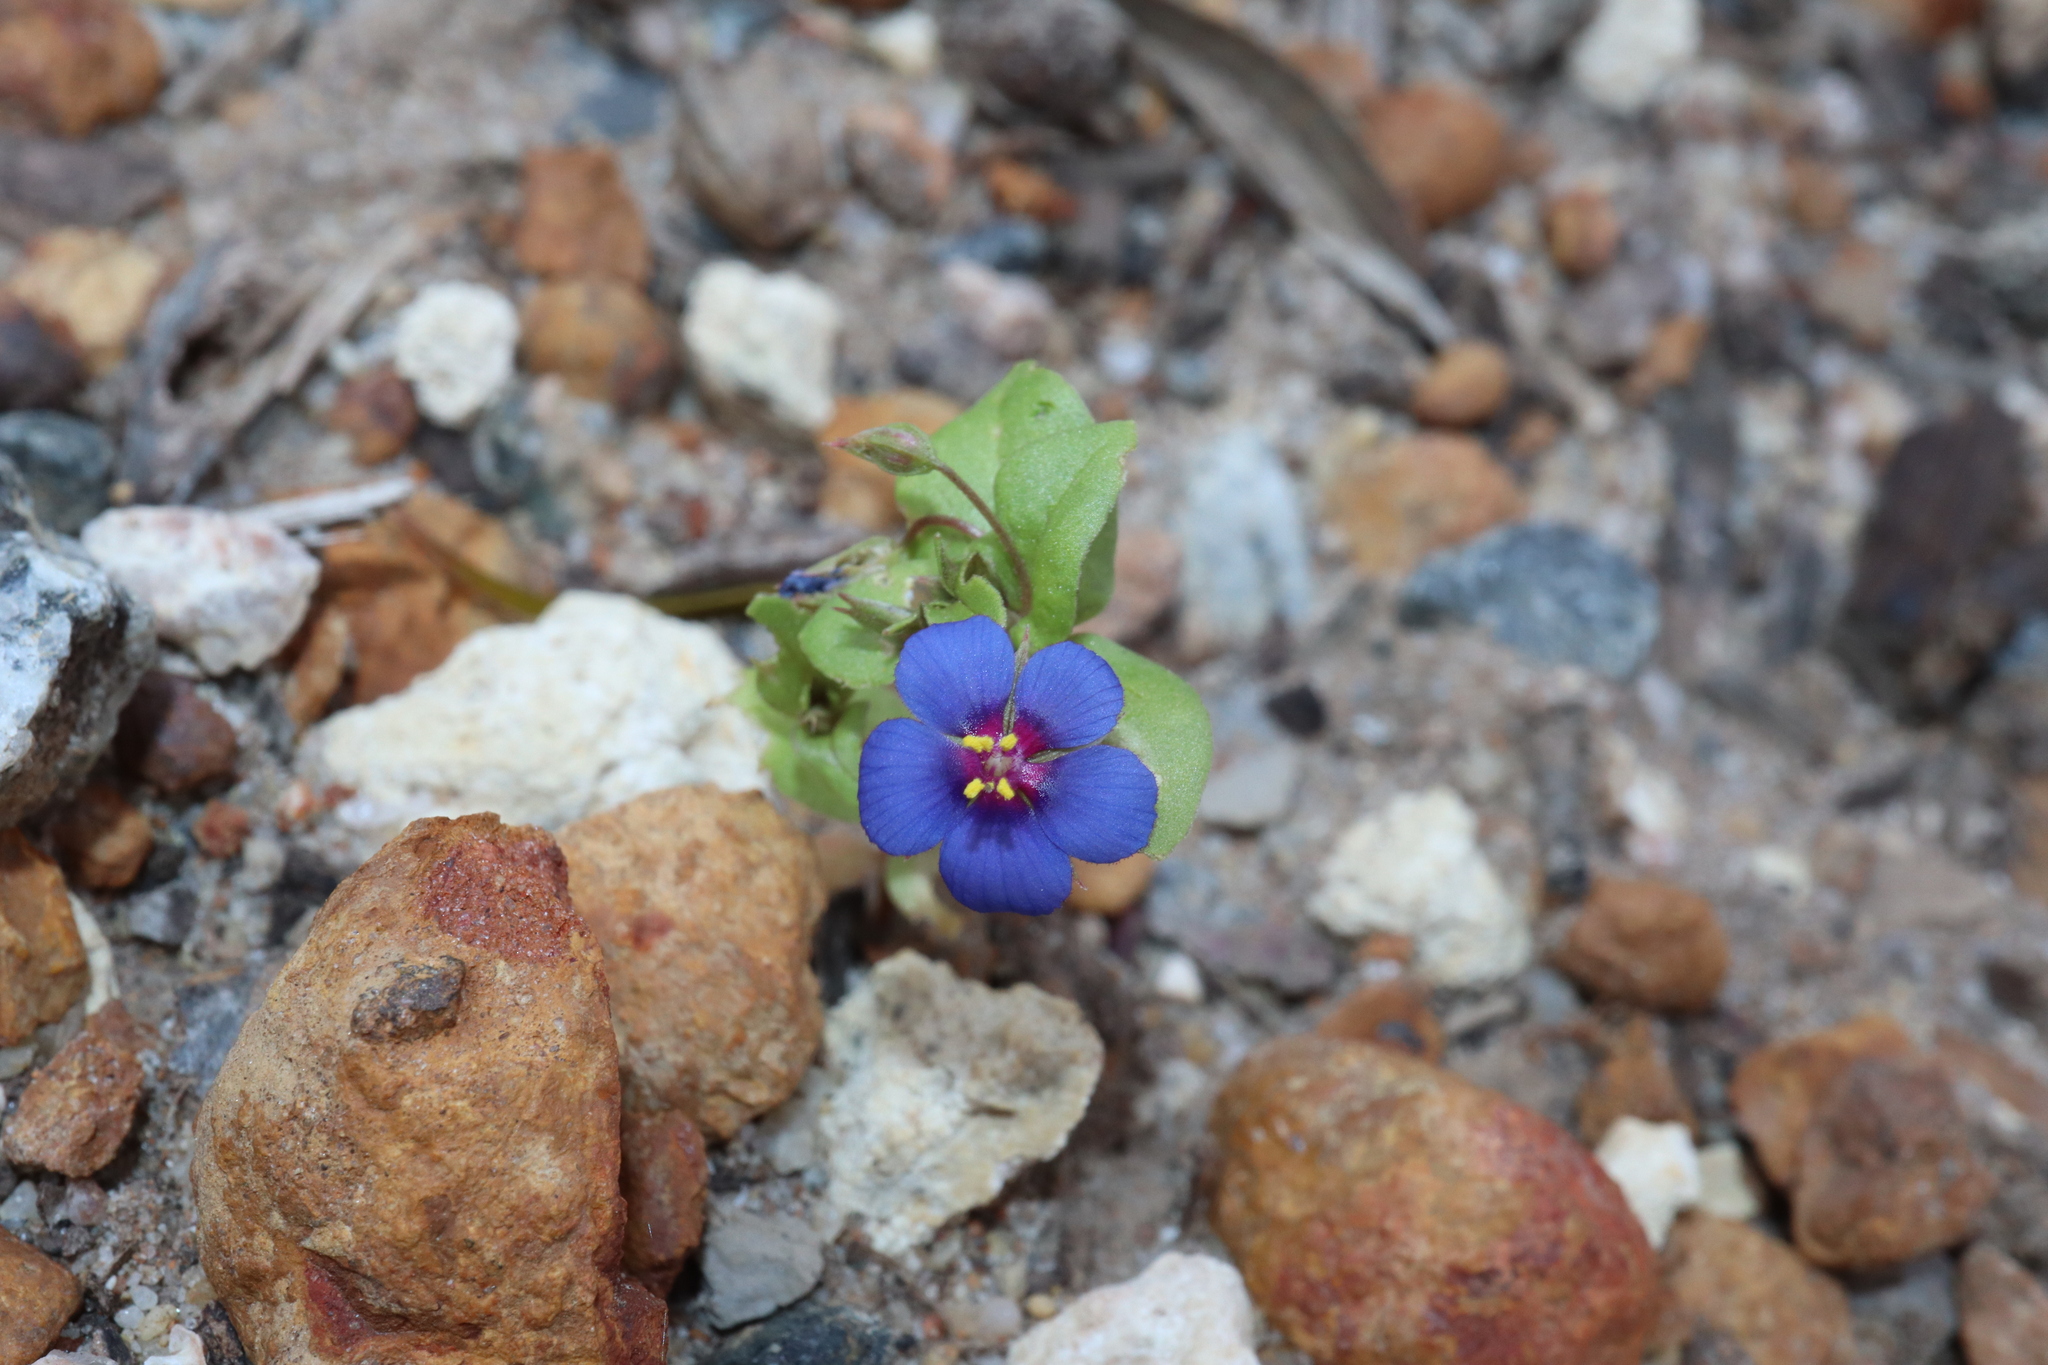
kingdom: Plantae
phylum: Tracheophyta
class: Magnoliopsida
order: Ericales
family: Primulaceae
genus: Lysimachia
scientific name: Lysimachia loeflingii
